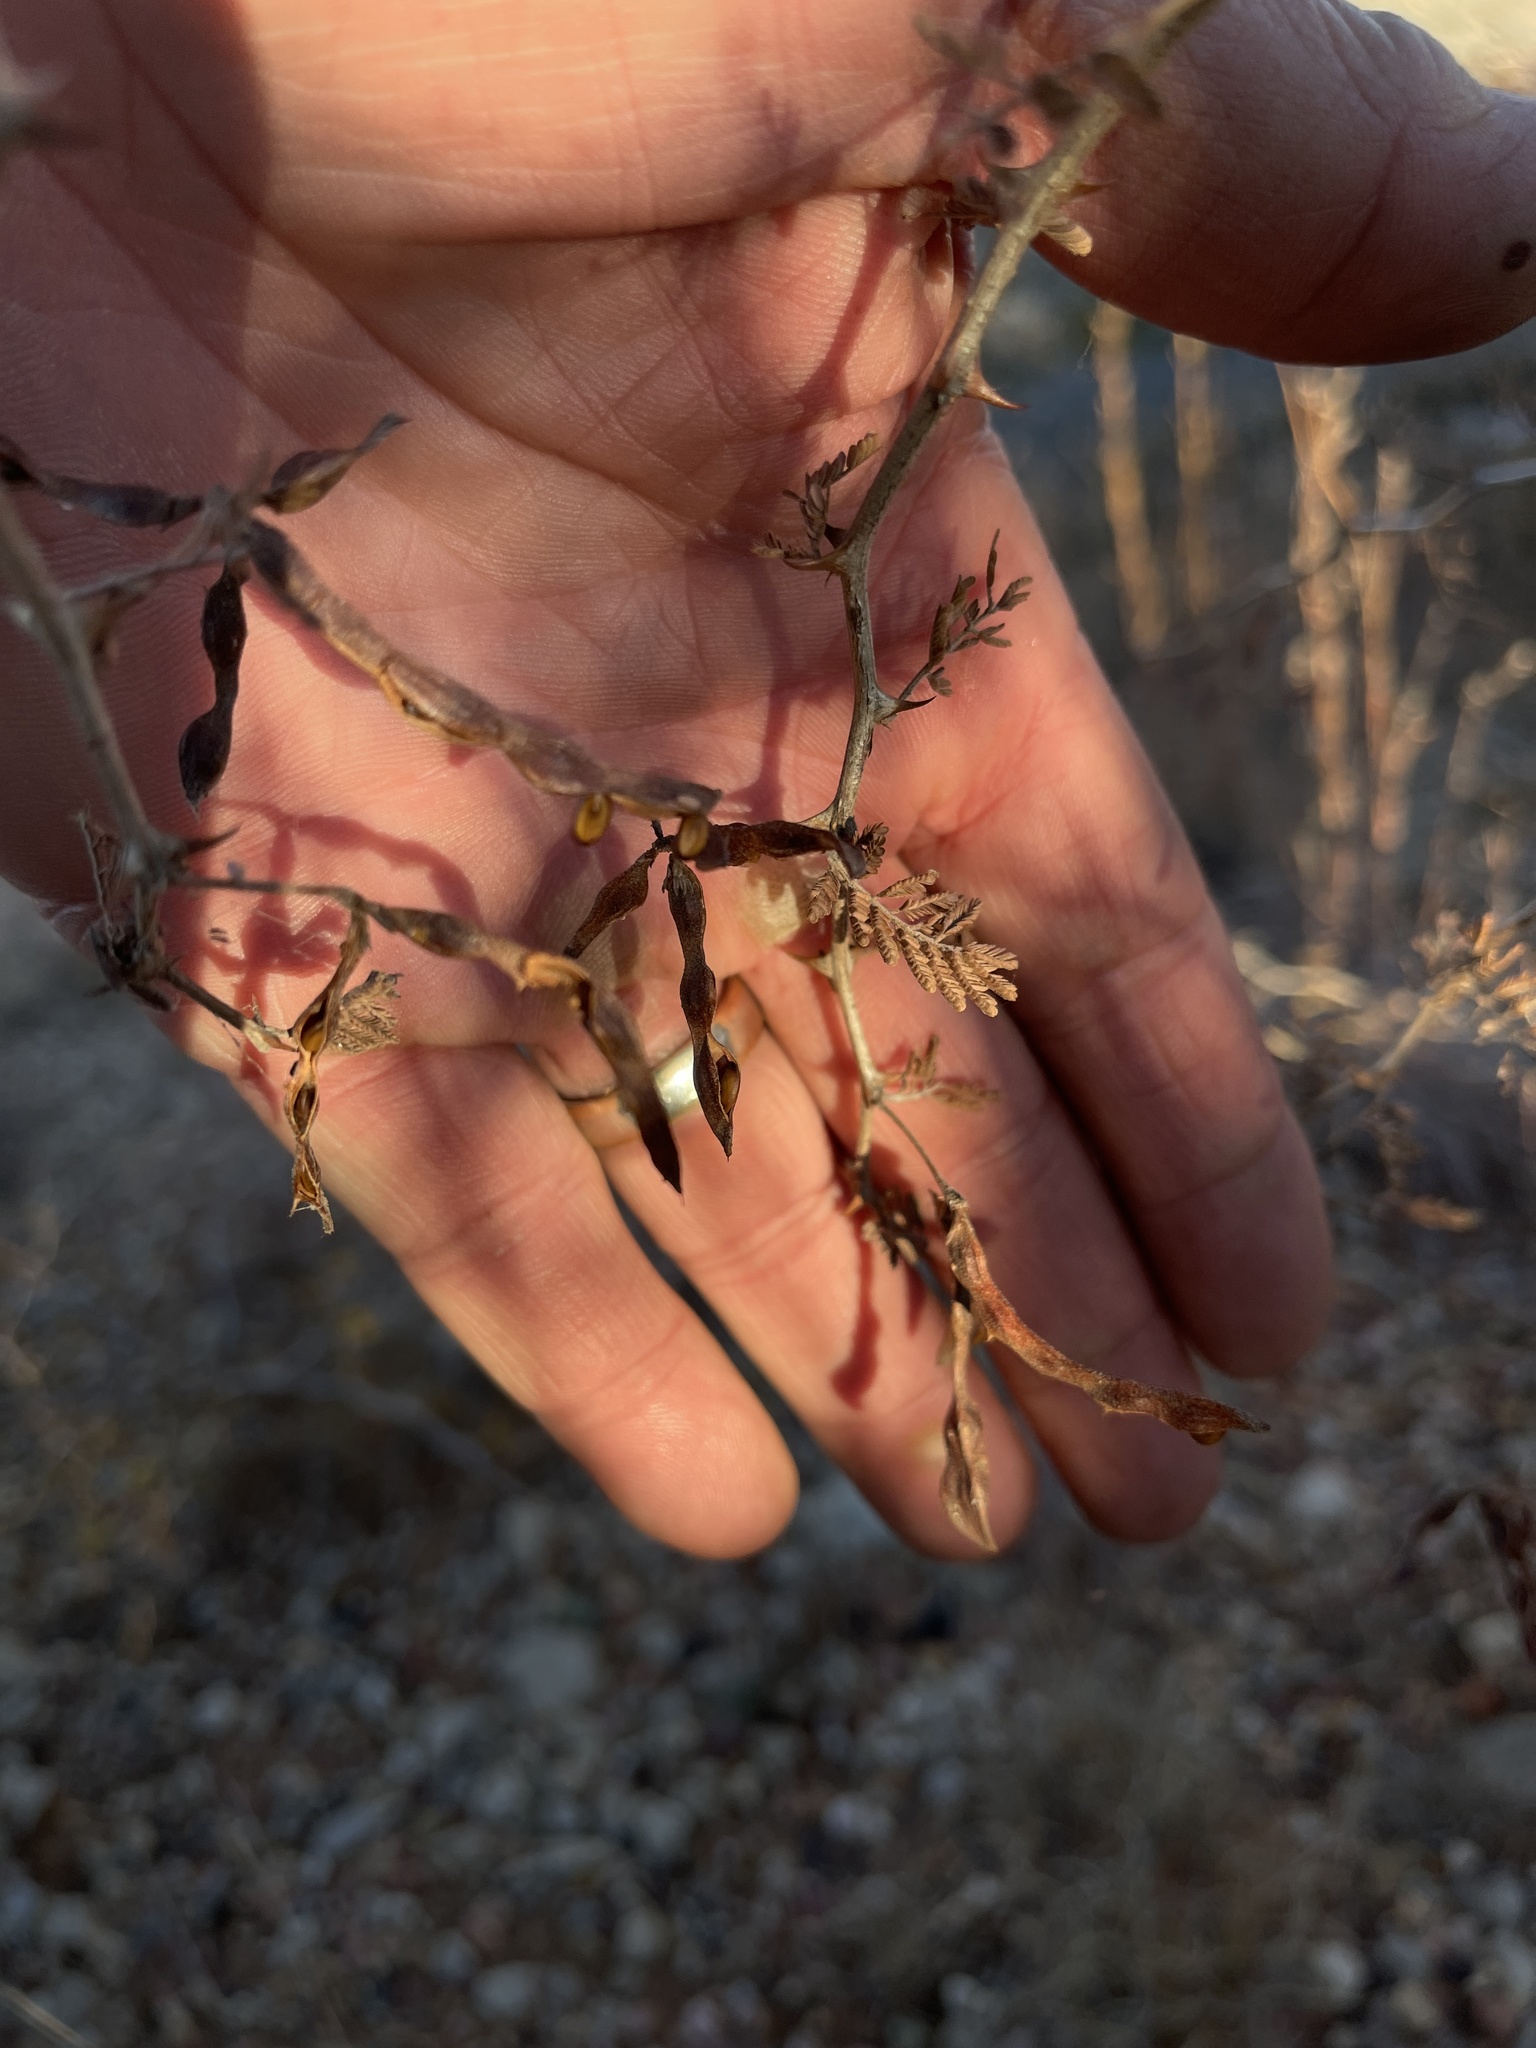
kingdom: Plantae
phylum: Tracheophyta
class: Magnoliopsida
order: Fabales
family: Fabaceae
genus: Mimosa
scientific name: Mimosa aculeaticarpa
